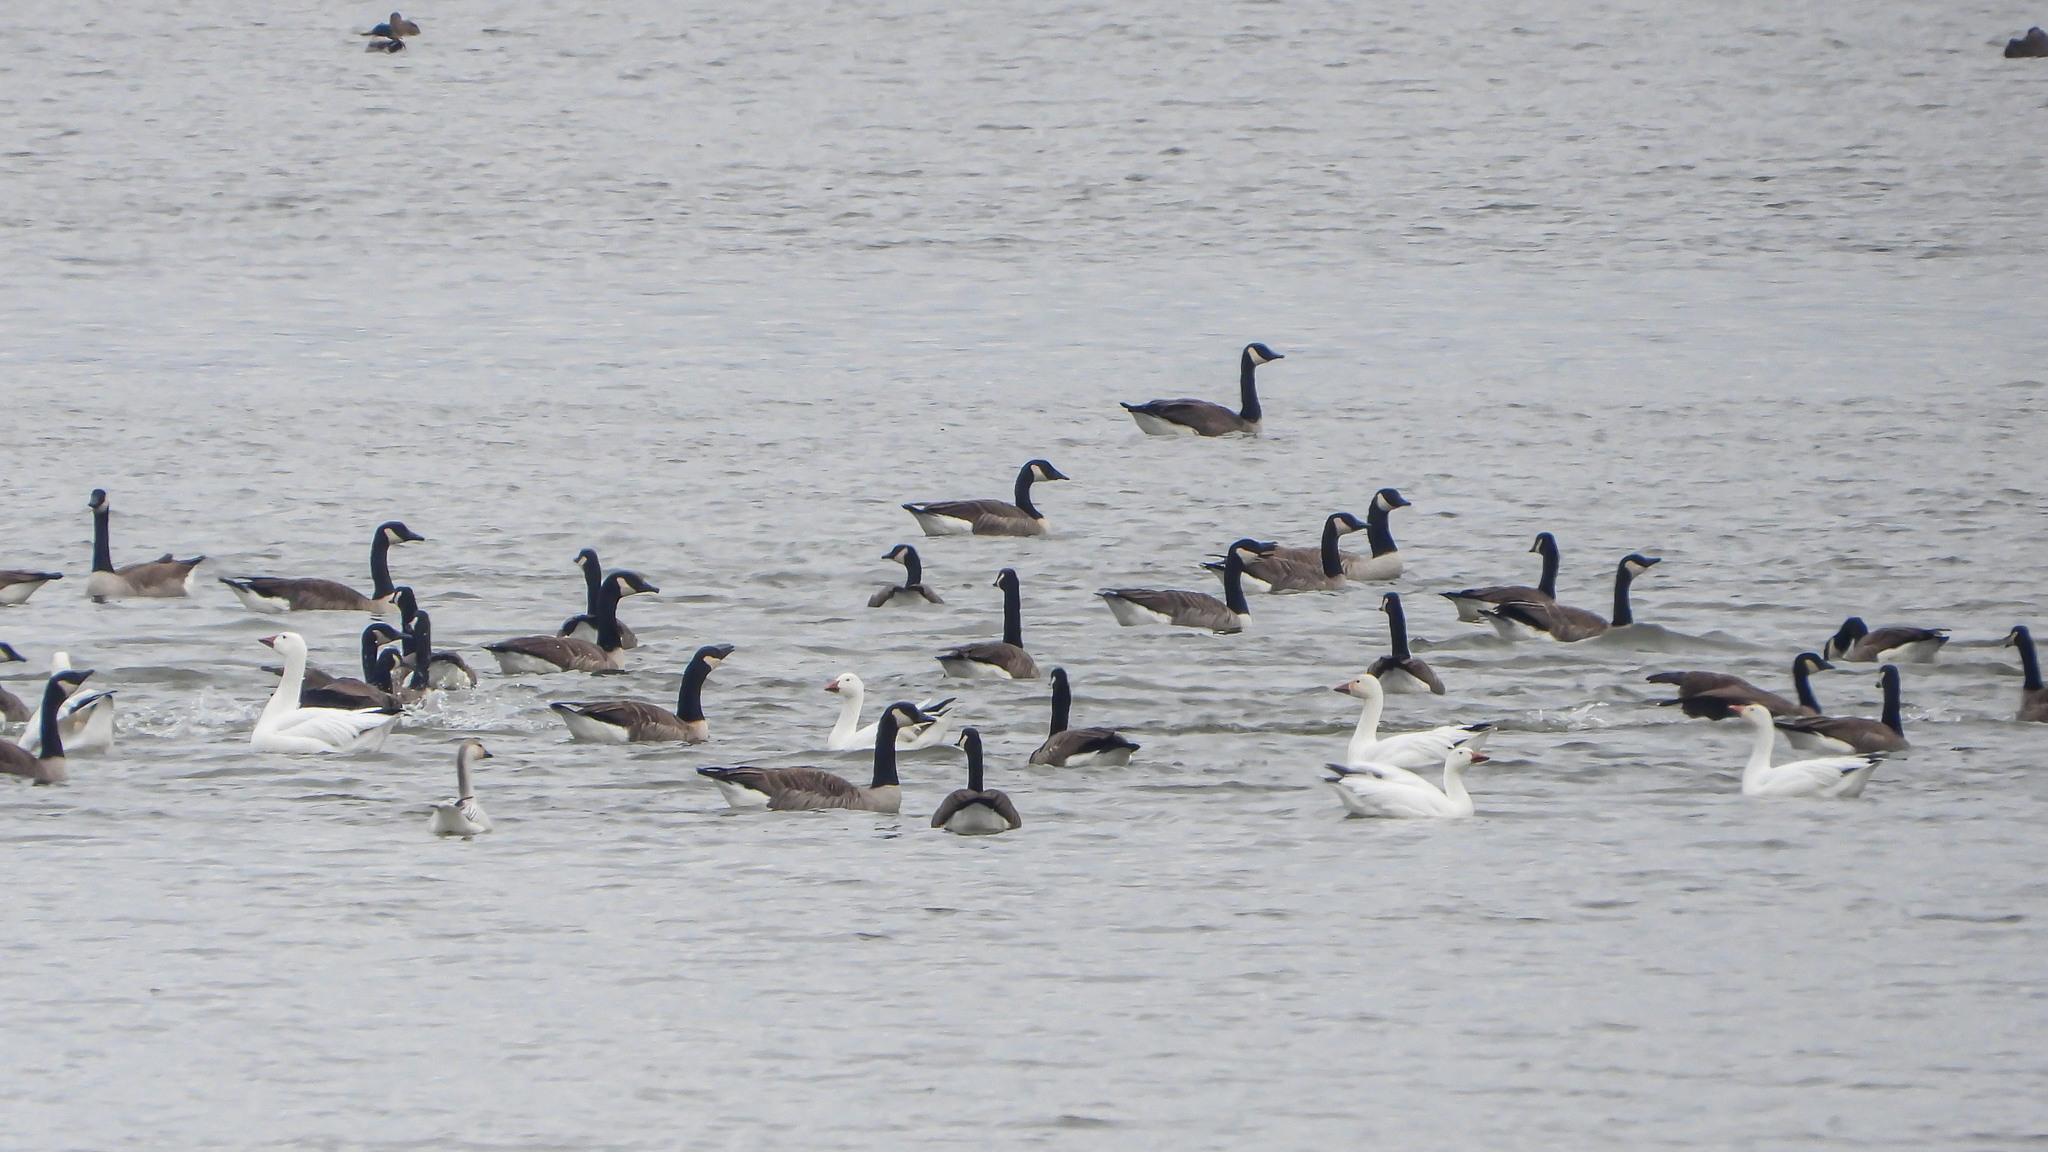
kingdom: Animalia
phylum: Chordata
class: Aves
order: Anseriformes
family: Anatidae
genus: Anser
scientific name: Anser caerulescens
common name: Snow goose
